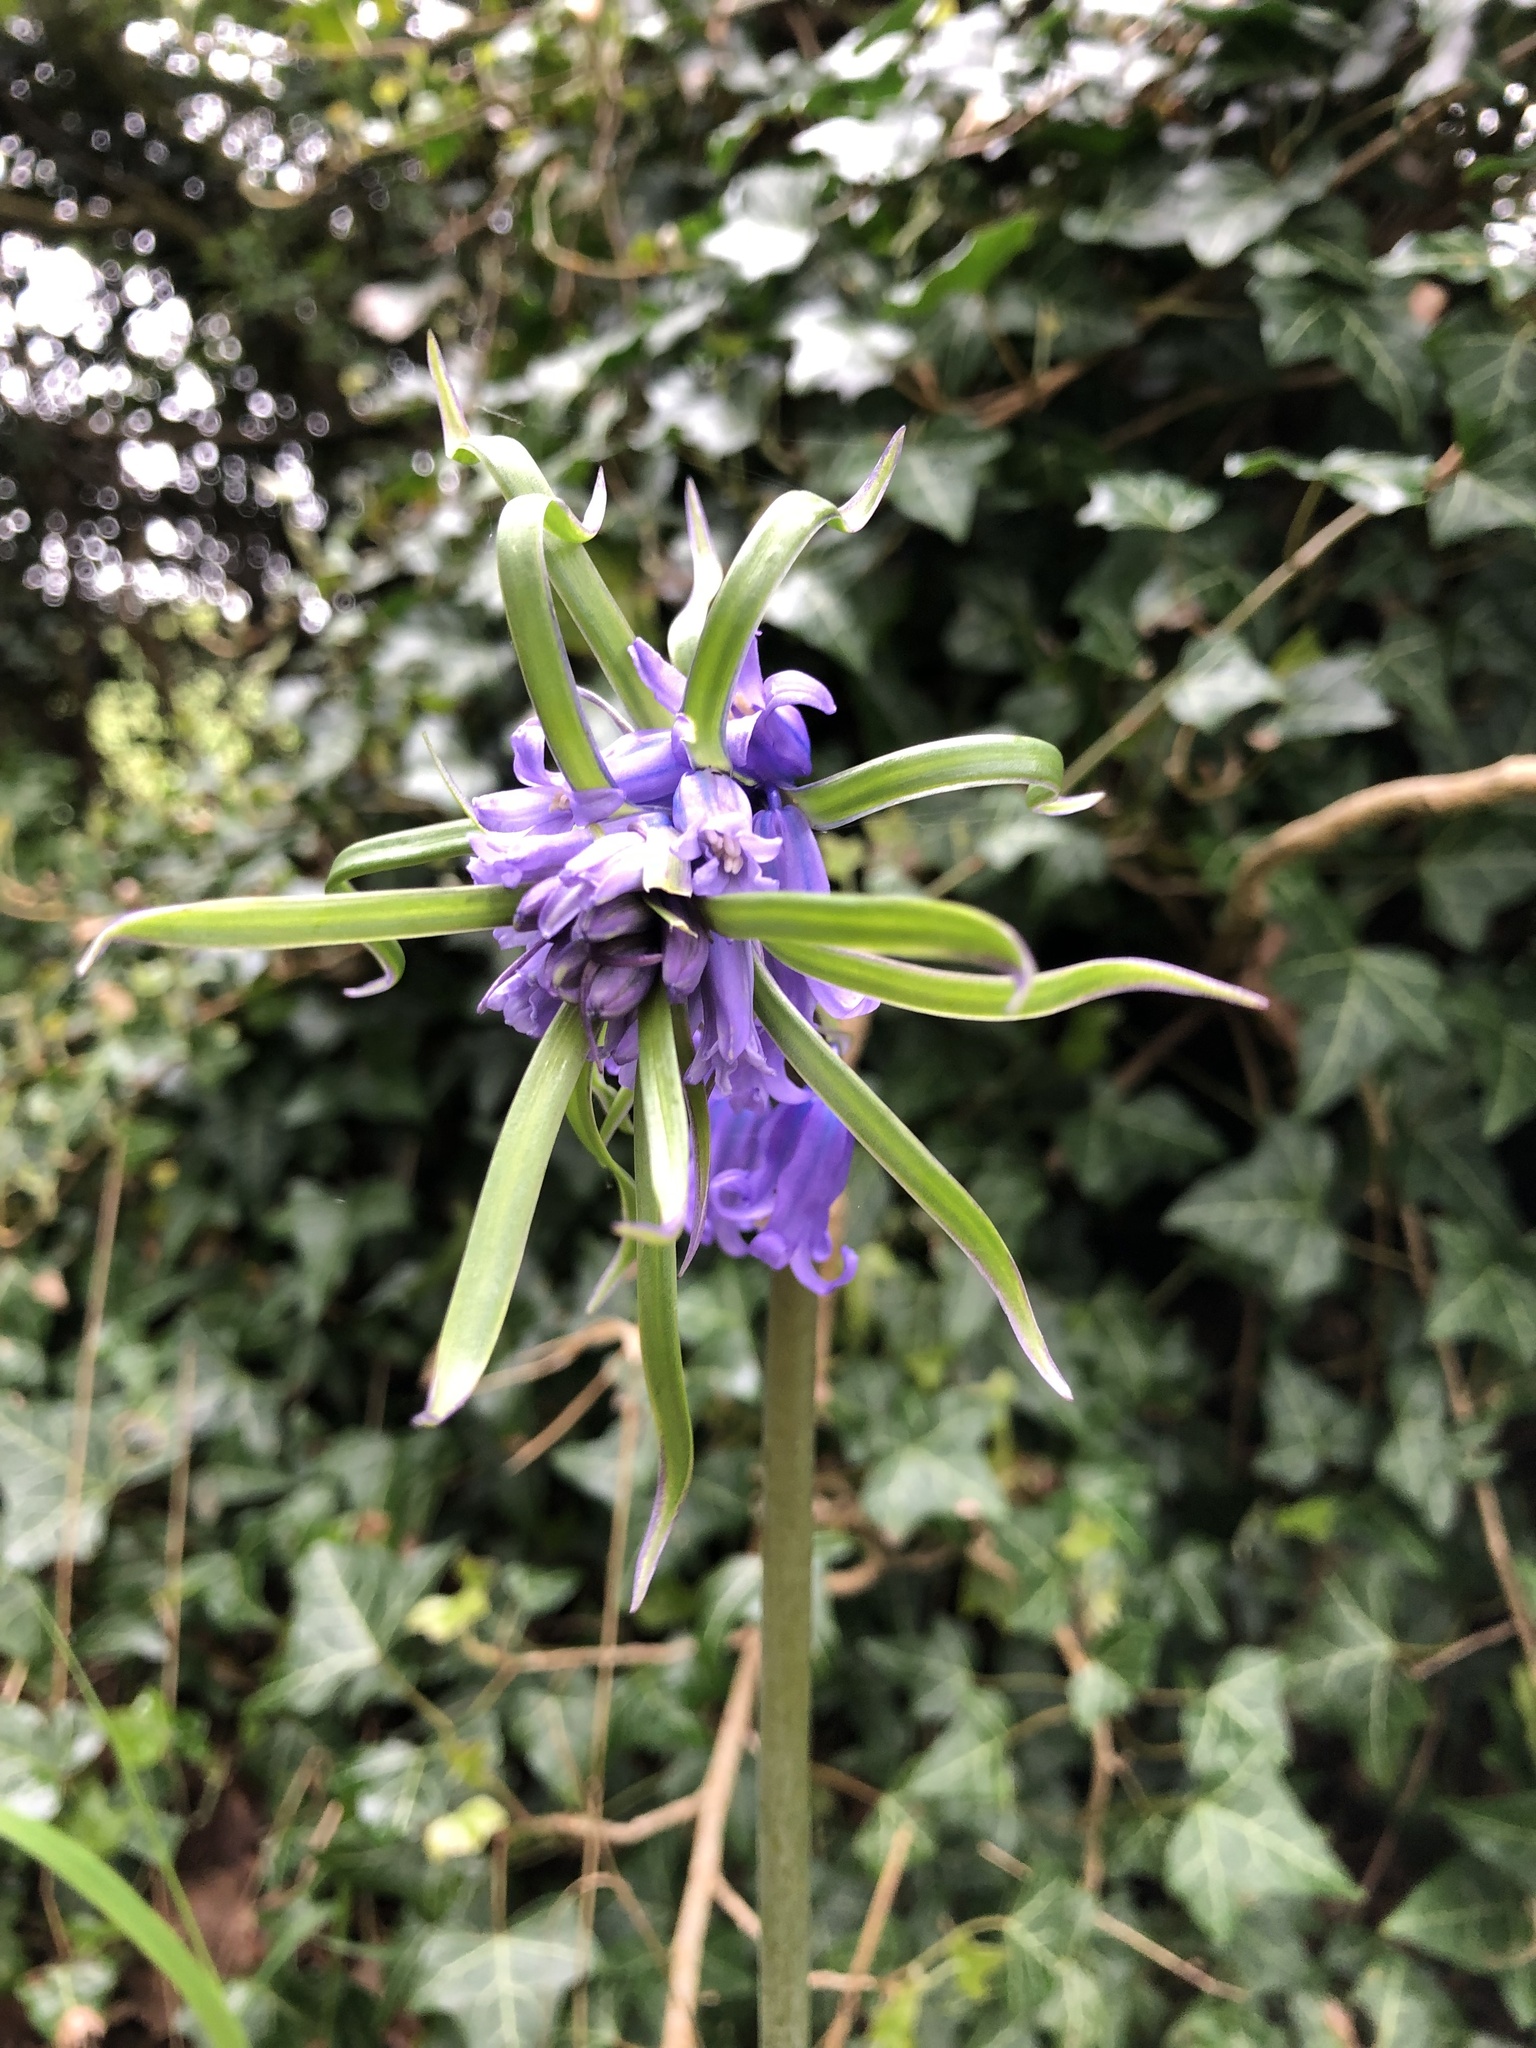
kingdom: Plantae
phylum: Tracheophyta
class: Liliopsida
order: Asparagales
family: Asparagaceae
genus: Hyacinthoides
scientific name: Hyacinthoides non-scripta
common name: Bluebell
